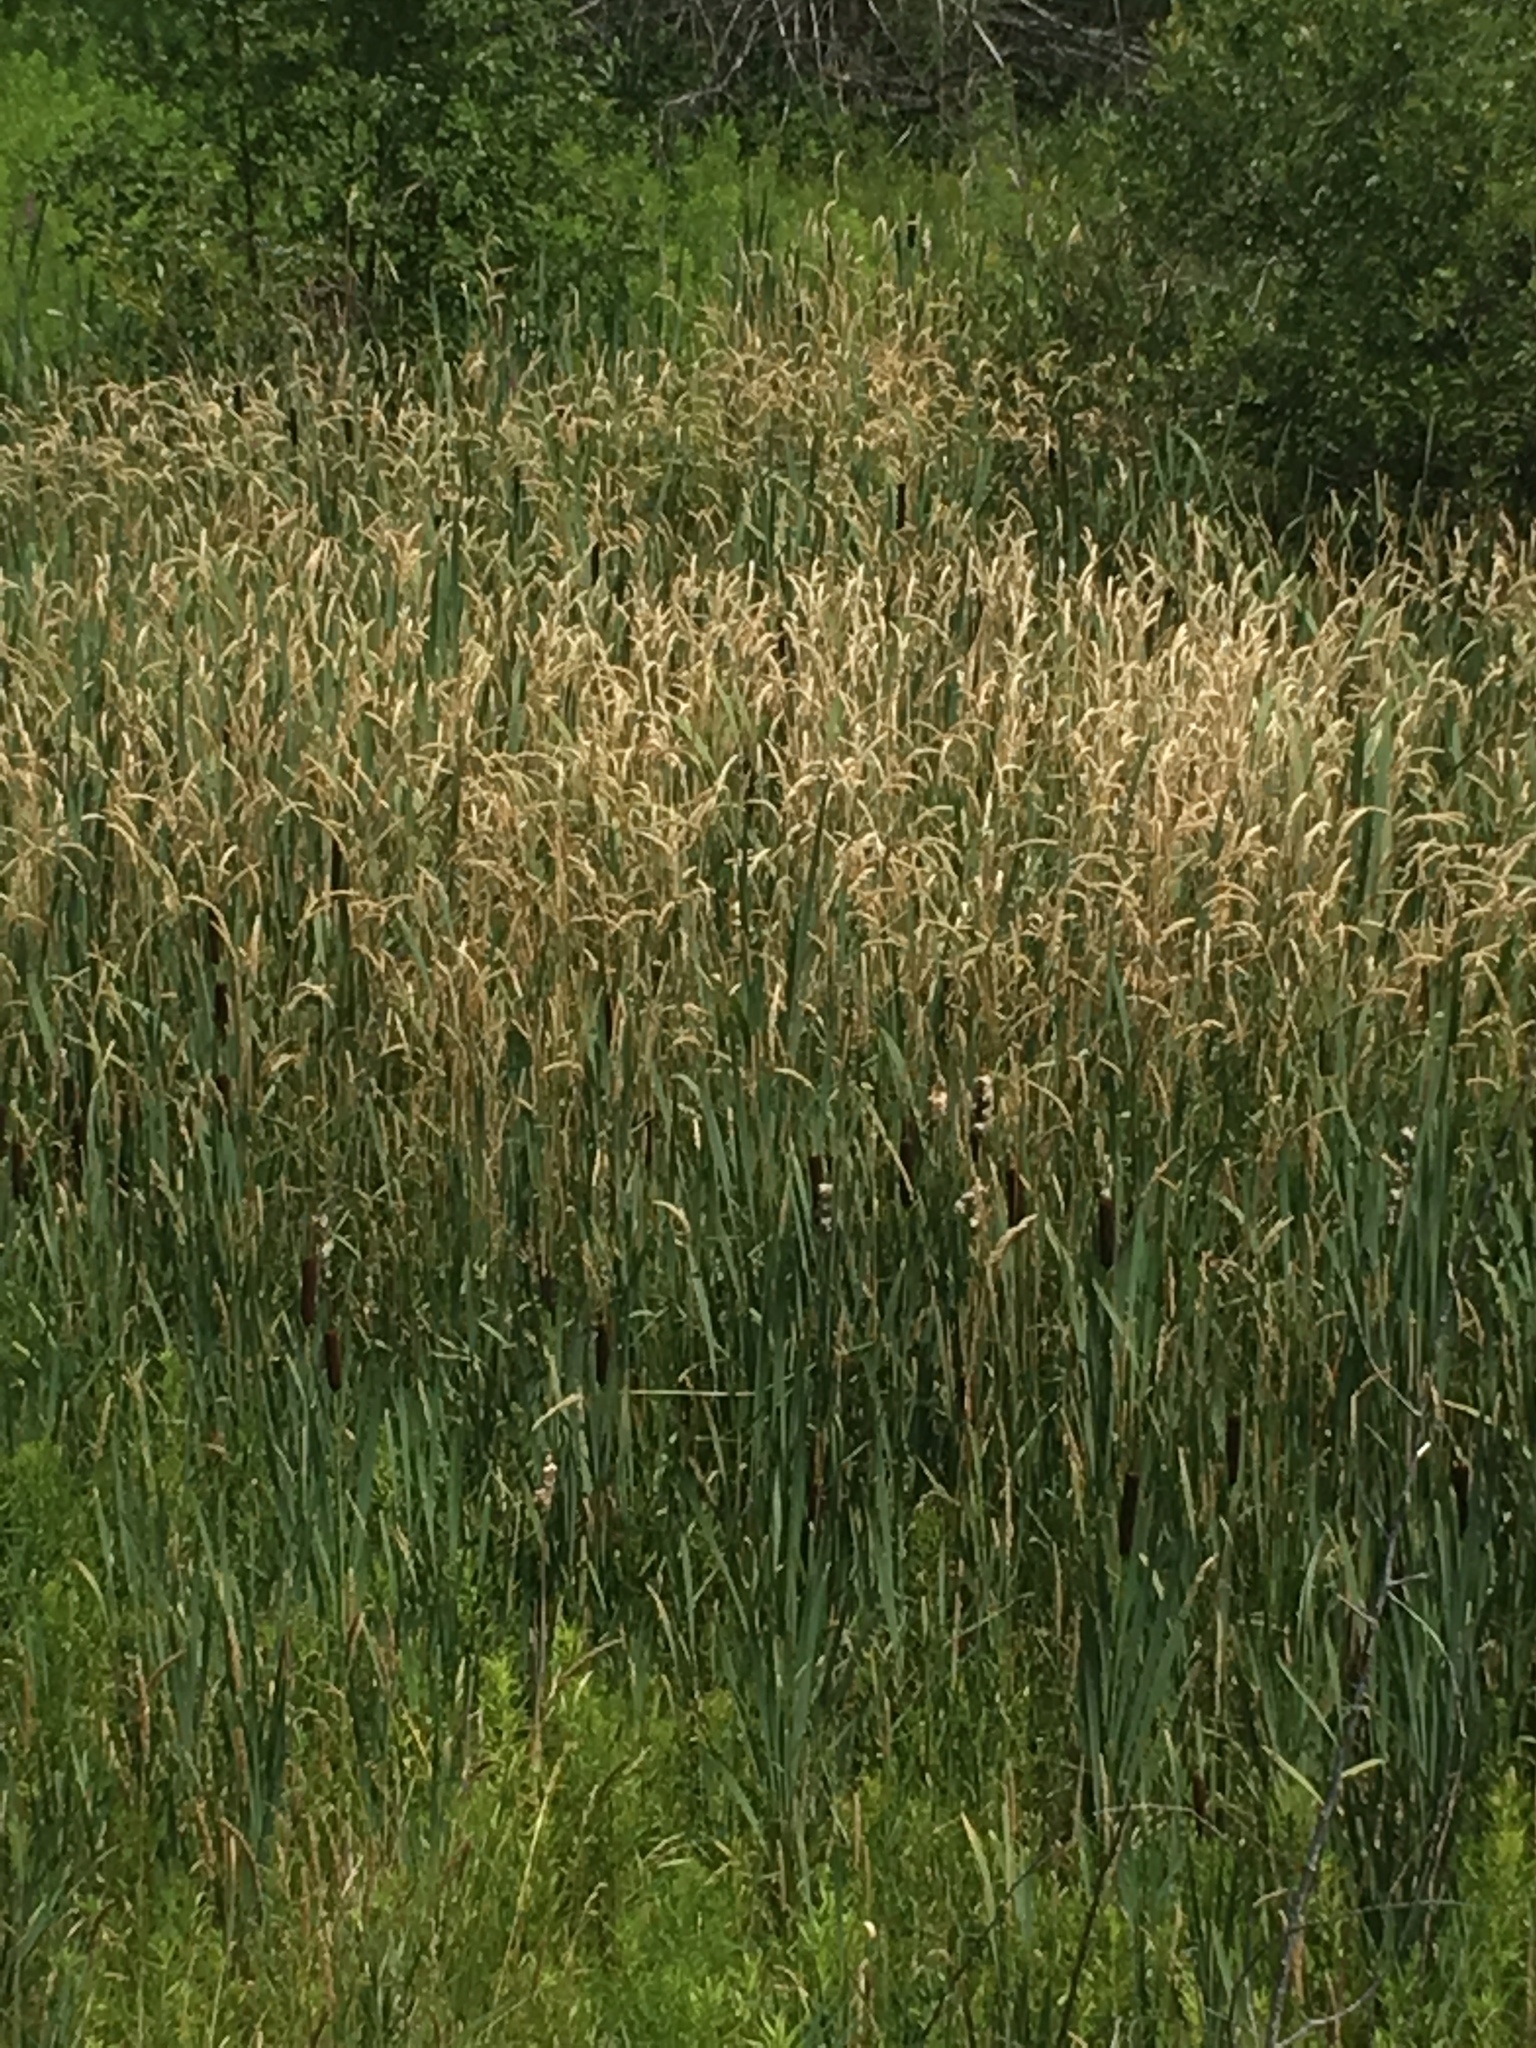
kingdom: Plantae
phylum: Tracheophyta
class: Liliopsida
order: Poales
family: Poaceae
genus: Phalaris
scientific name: Phalaris arundinacea
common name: Reed canary-grass
